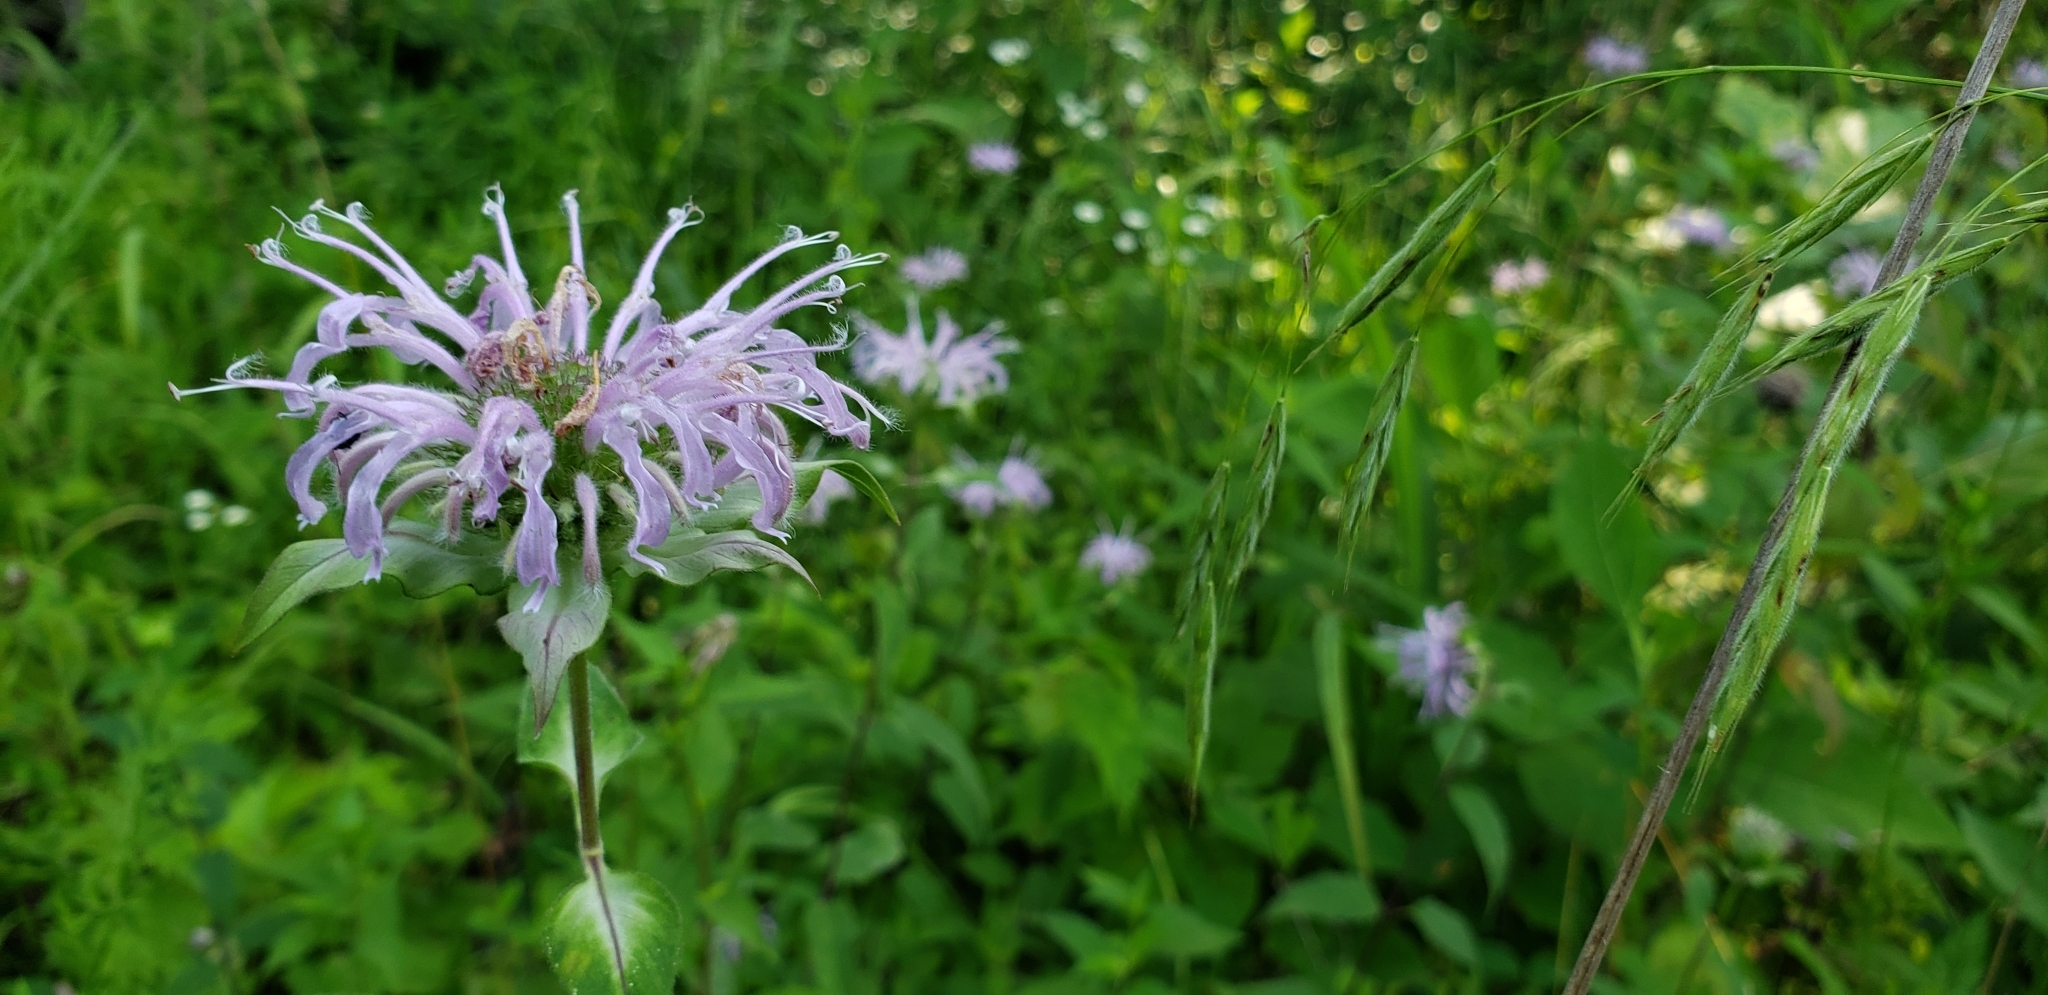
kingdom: Plantae
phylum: Tracheophyta
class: Magnoliopsida
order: Lamiales
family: Lamiaceae
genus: Monarda
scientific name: Monarda fistulosa
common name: Purple beebalm
